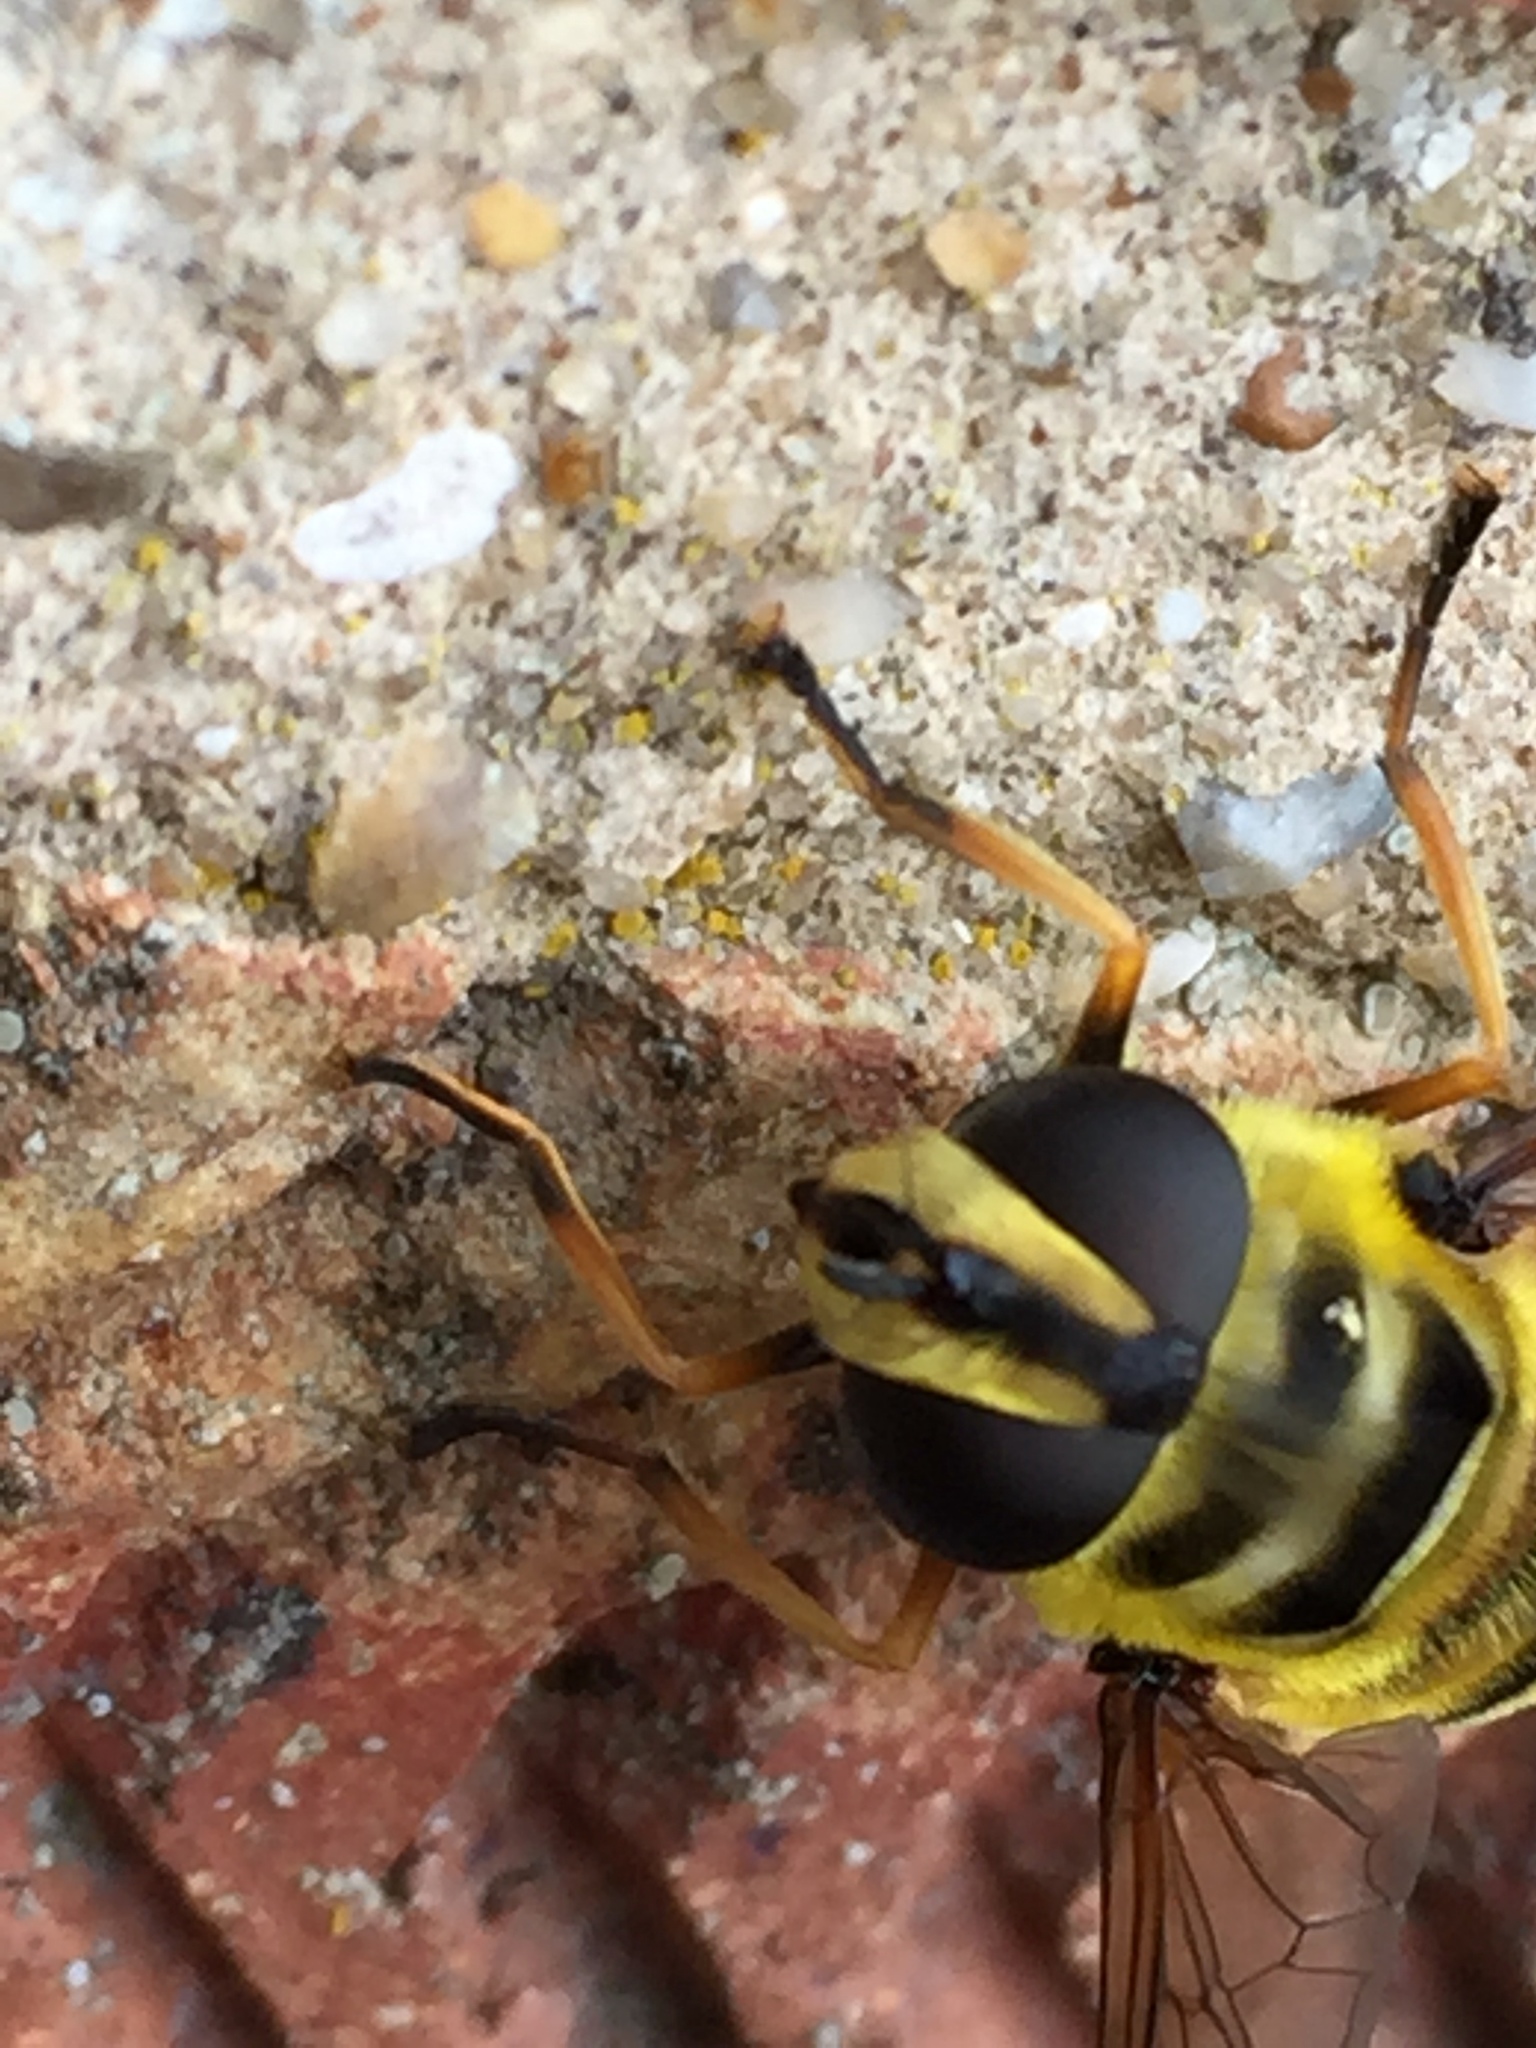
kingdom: Animalia
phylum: Arthropoda
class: Insecta
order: Diptera
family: Syrphidae
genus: Myathropa
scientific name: Myathropa florea
